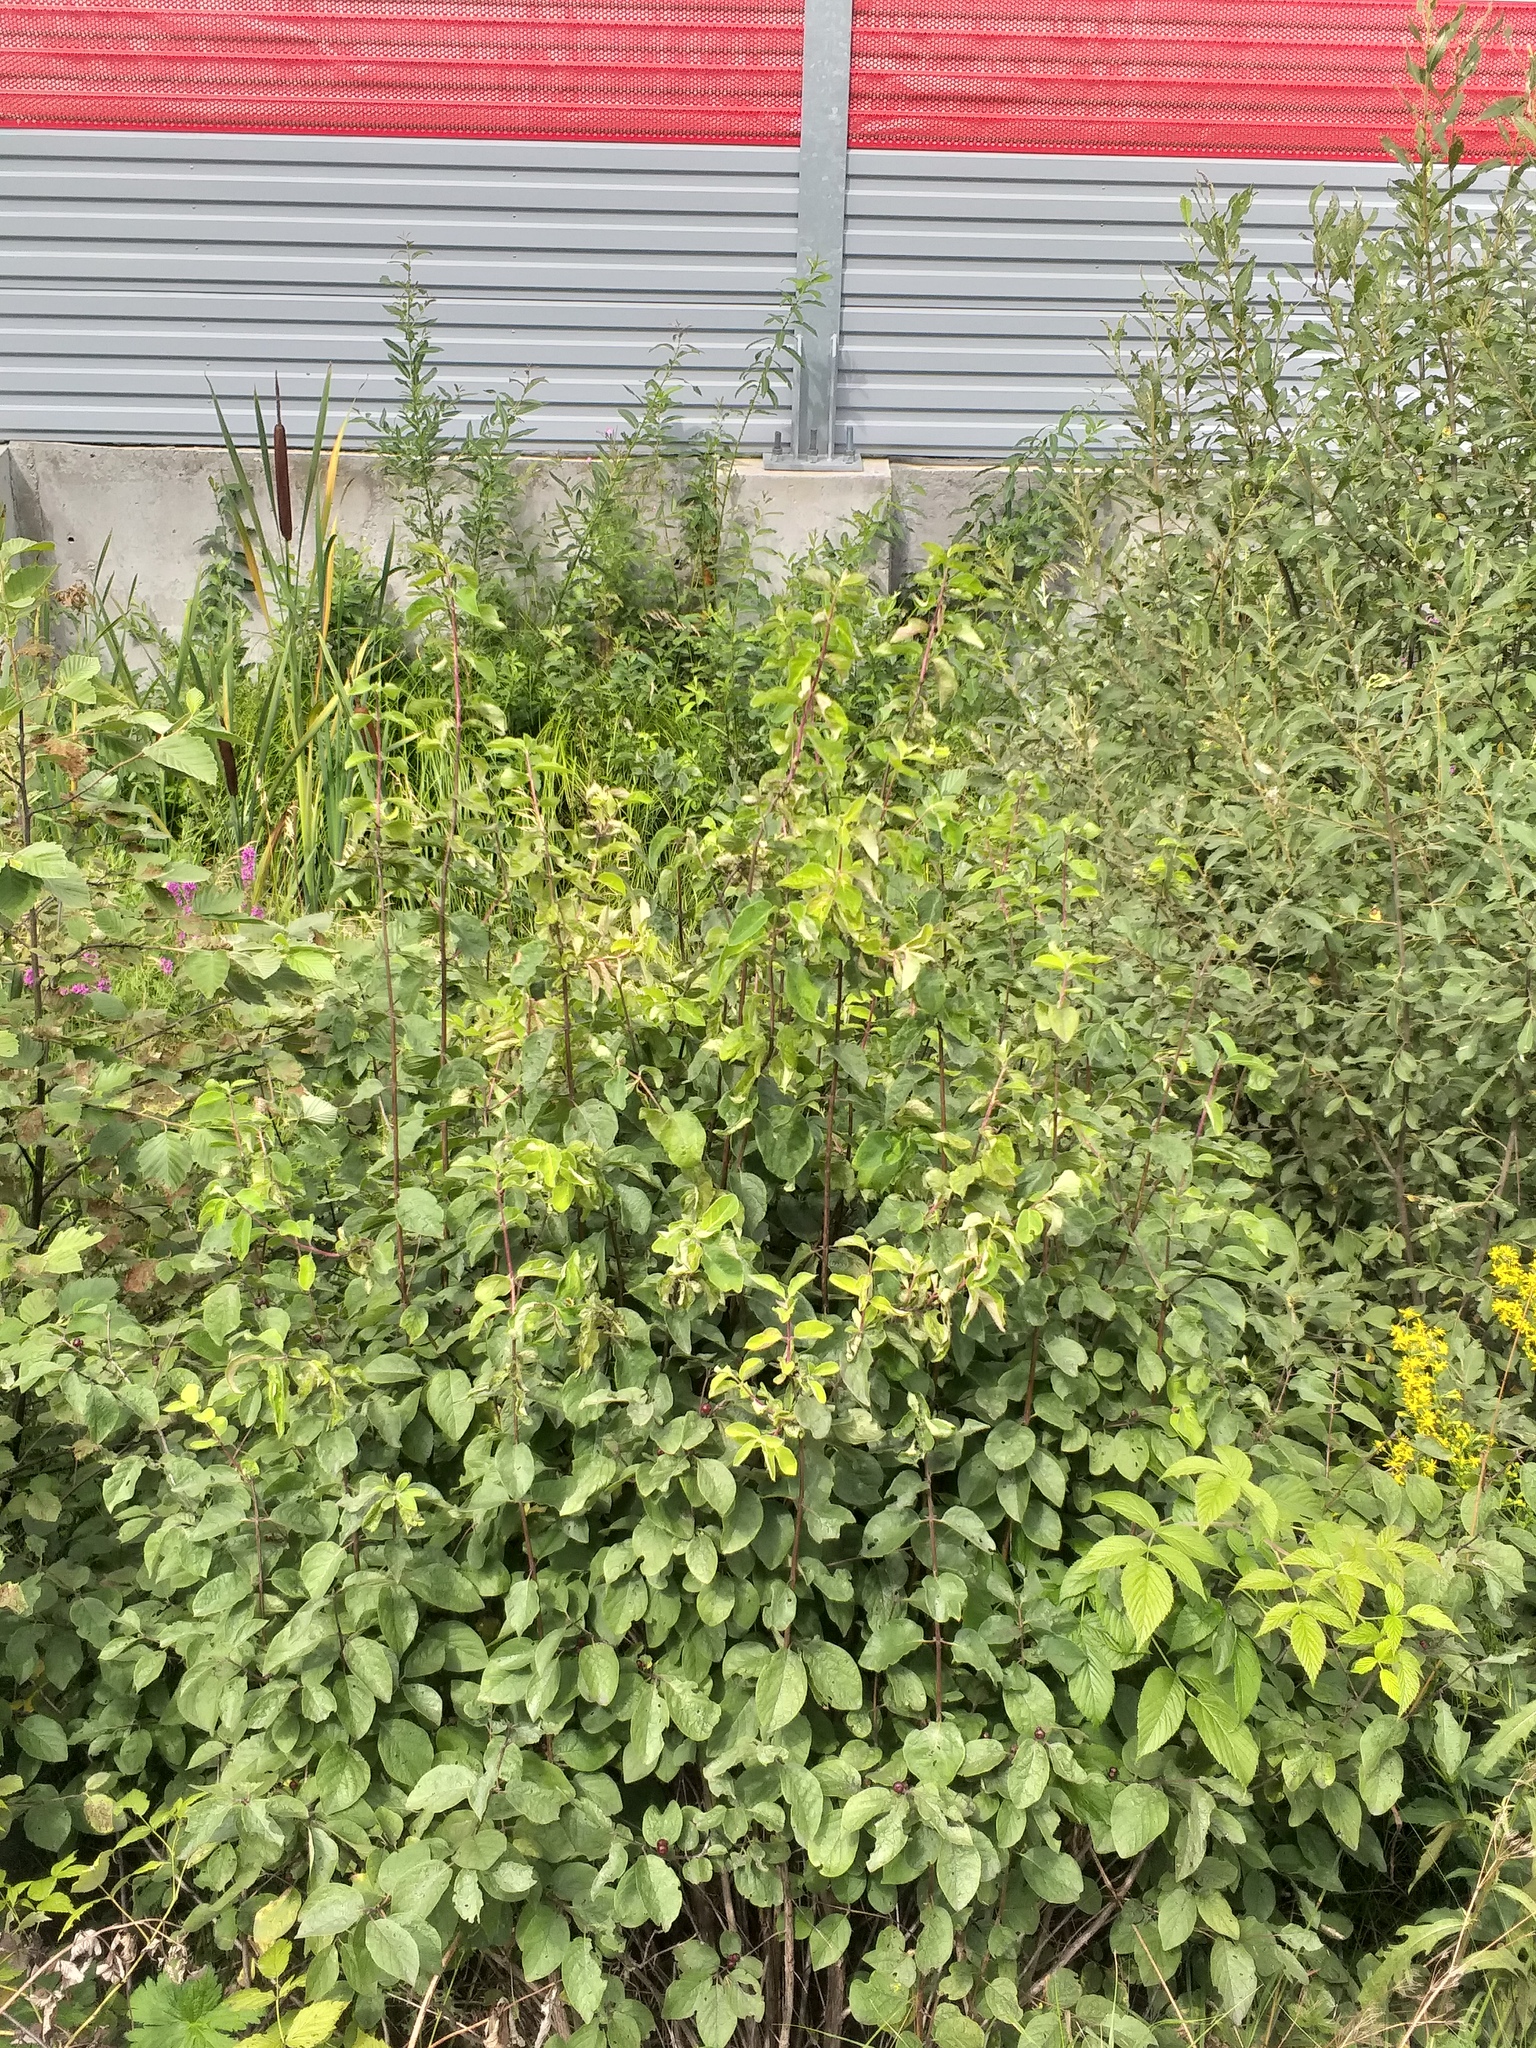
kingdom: Plantae
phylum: Tracheophyta
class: Magnoliopsida
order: Dipsacales
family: Caprifoliaceae
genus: Lonicera
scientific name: Lonicera xylosteum
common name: Fly honeysuckle
